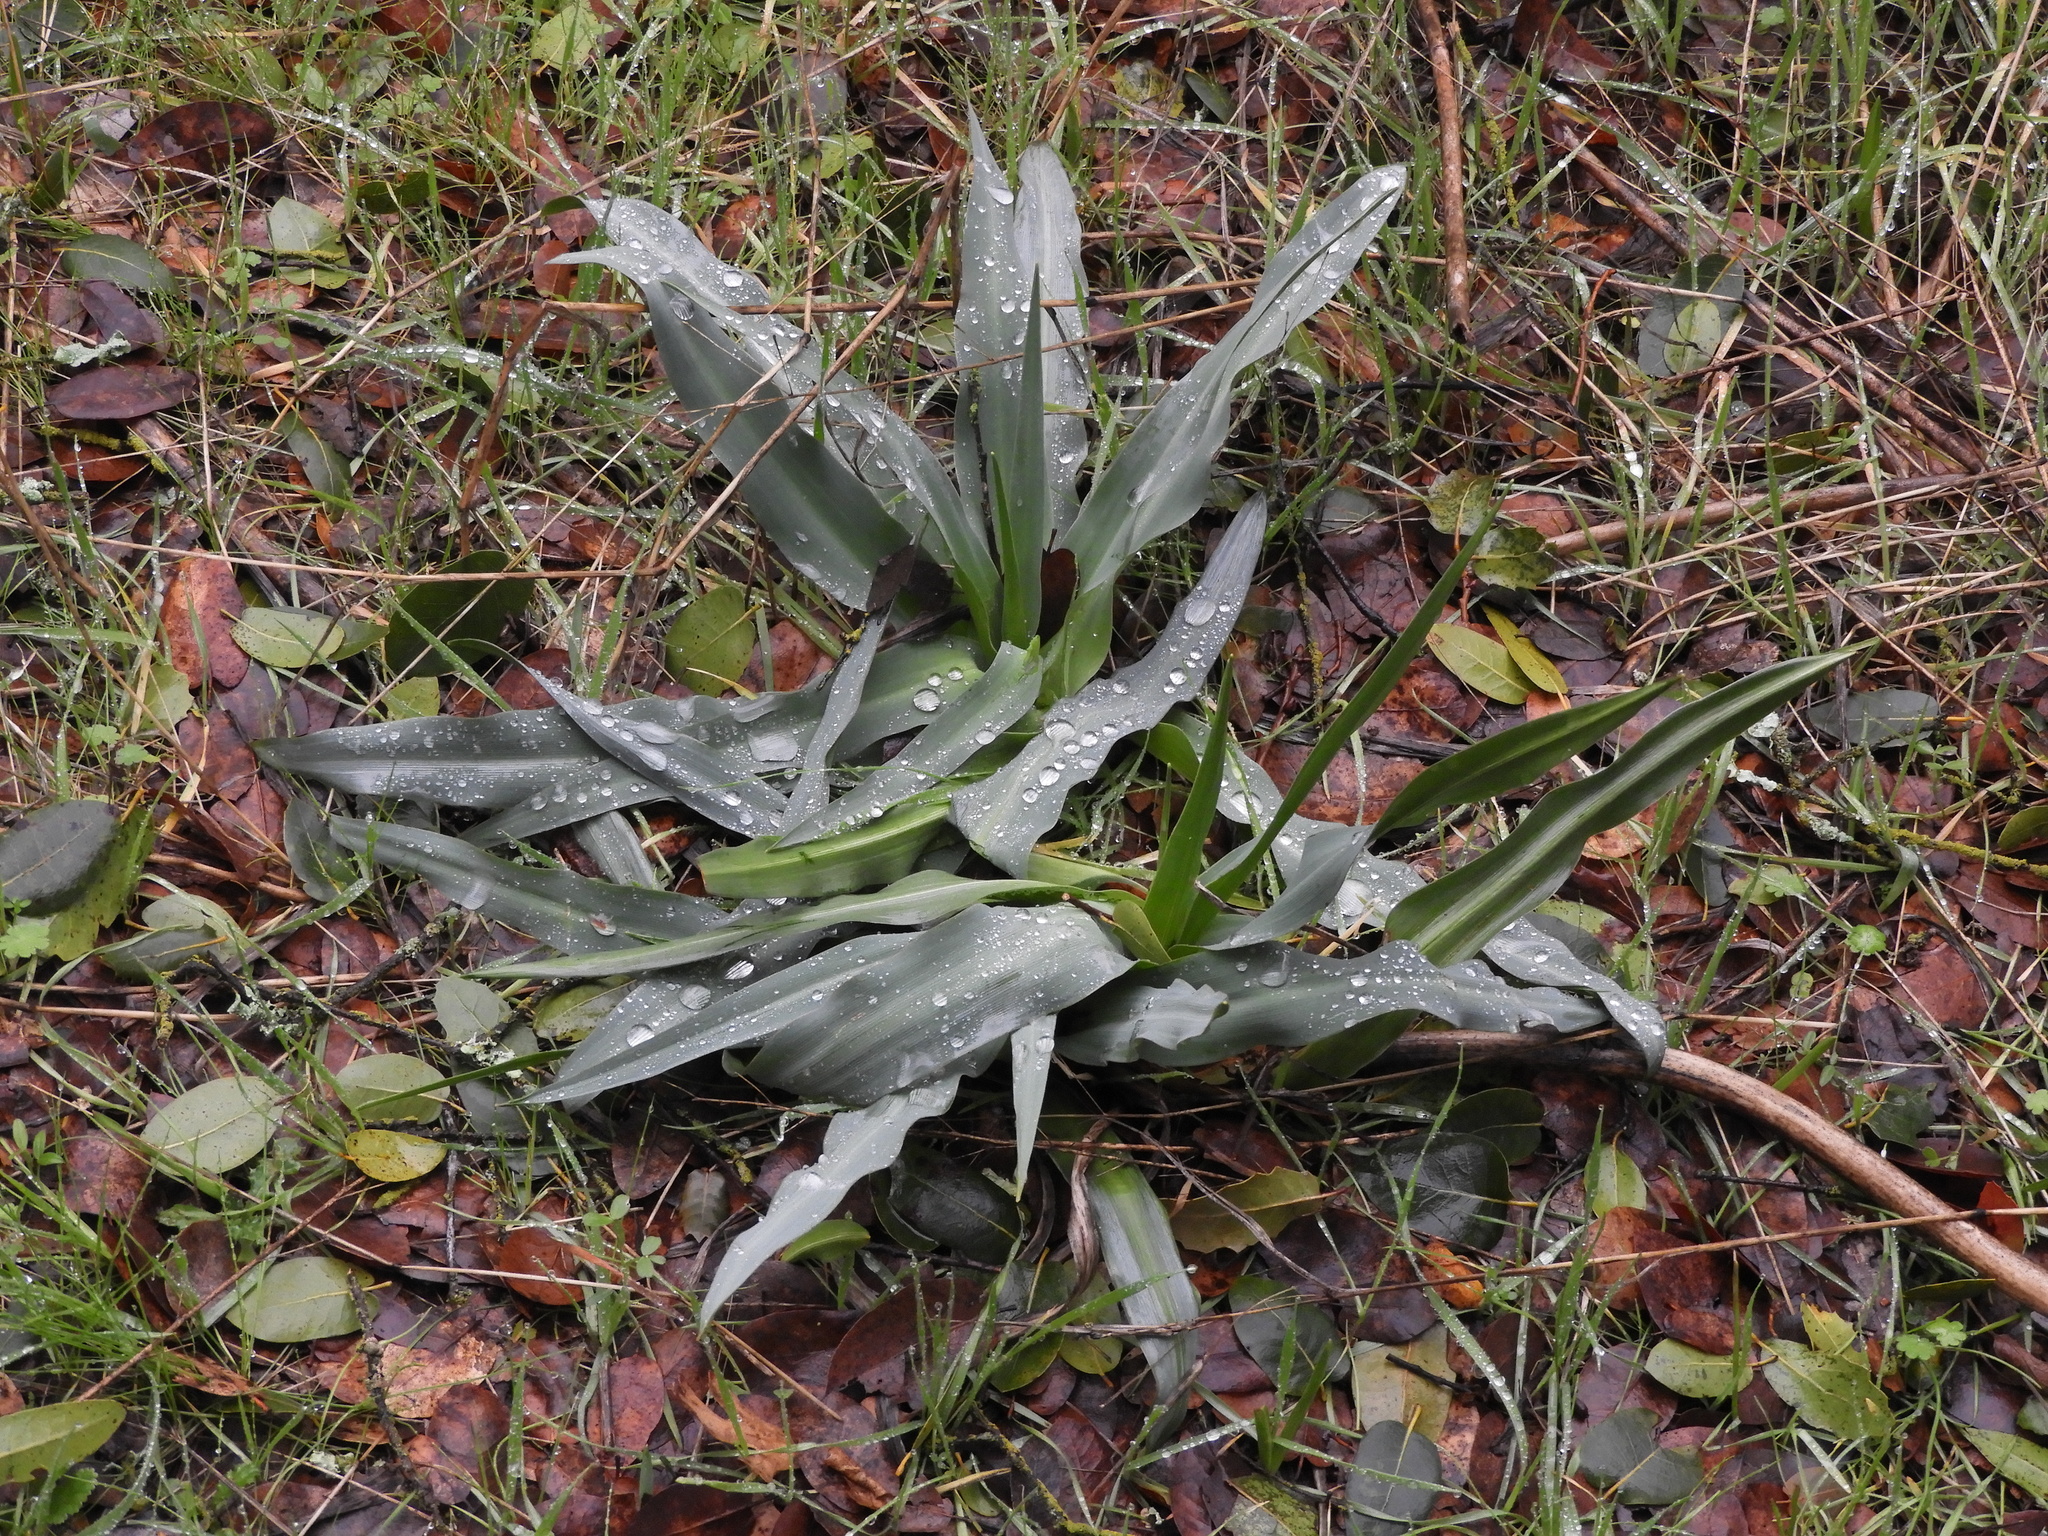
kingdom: Plantae
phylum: Tracheophyta
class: Liliopsida
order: Asparagales
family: Asparagaceae
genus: Chlorogalum
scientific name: Chlorogalum pomeridianum
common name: Amole
